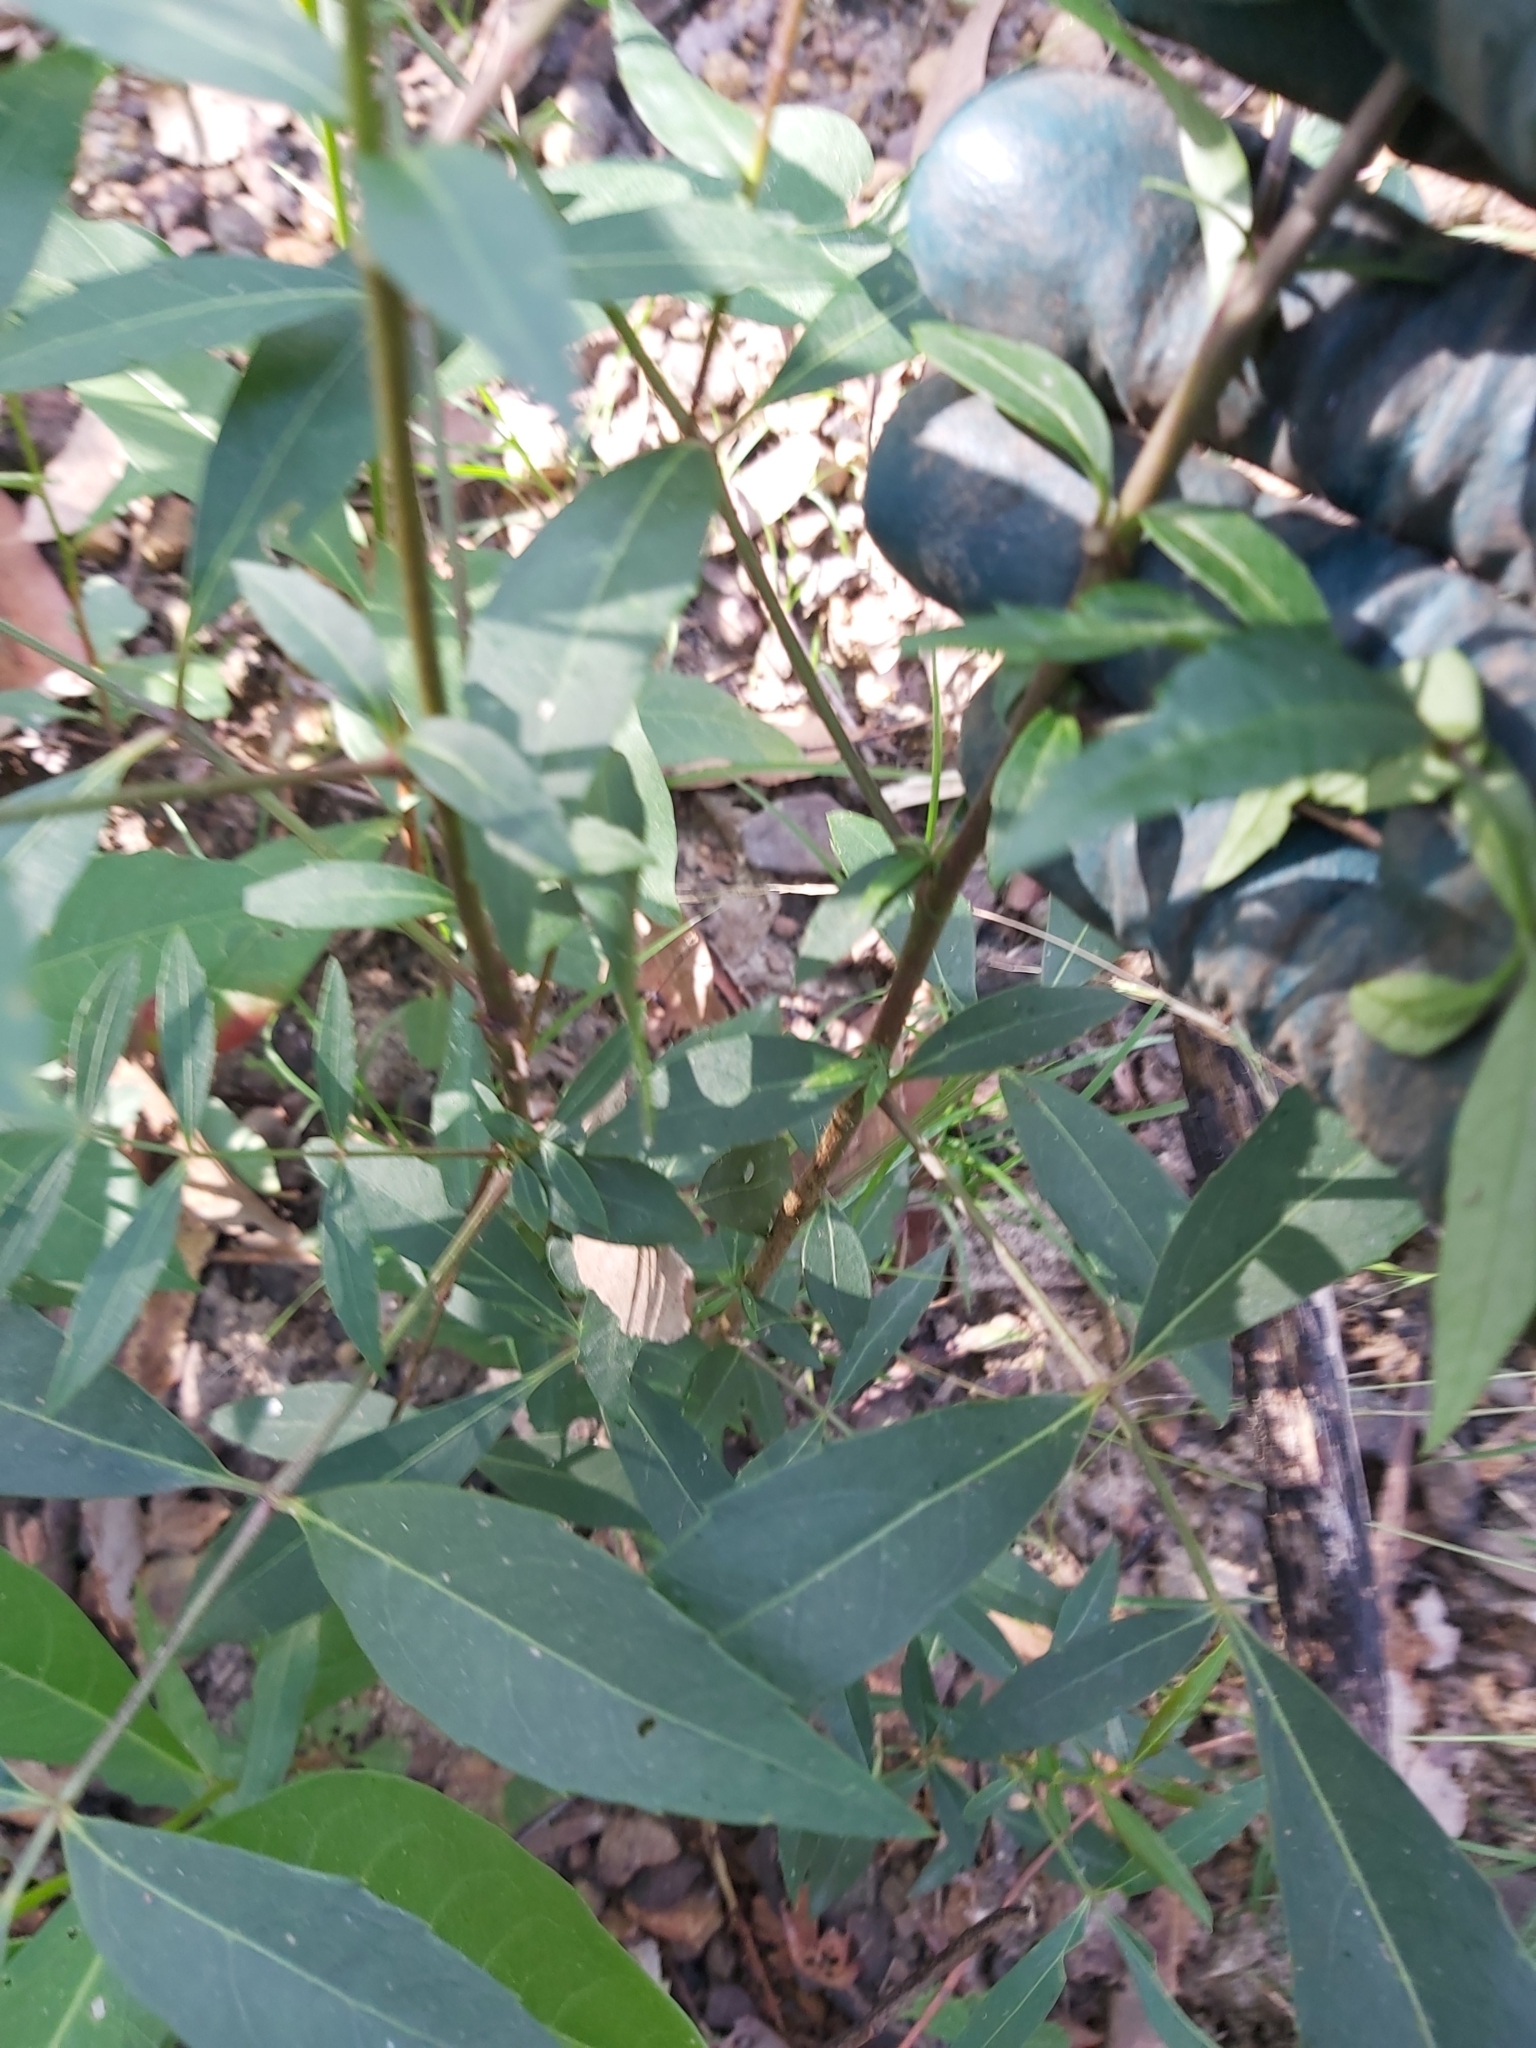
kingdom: Plantae
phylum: Tracheophyta
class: Magnoliopsida
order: Apiales
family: Araliaceae
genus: Polyscias
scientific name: Polyscias sambucifolia
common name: Elderberry-ash
